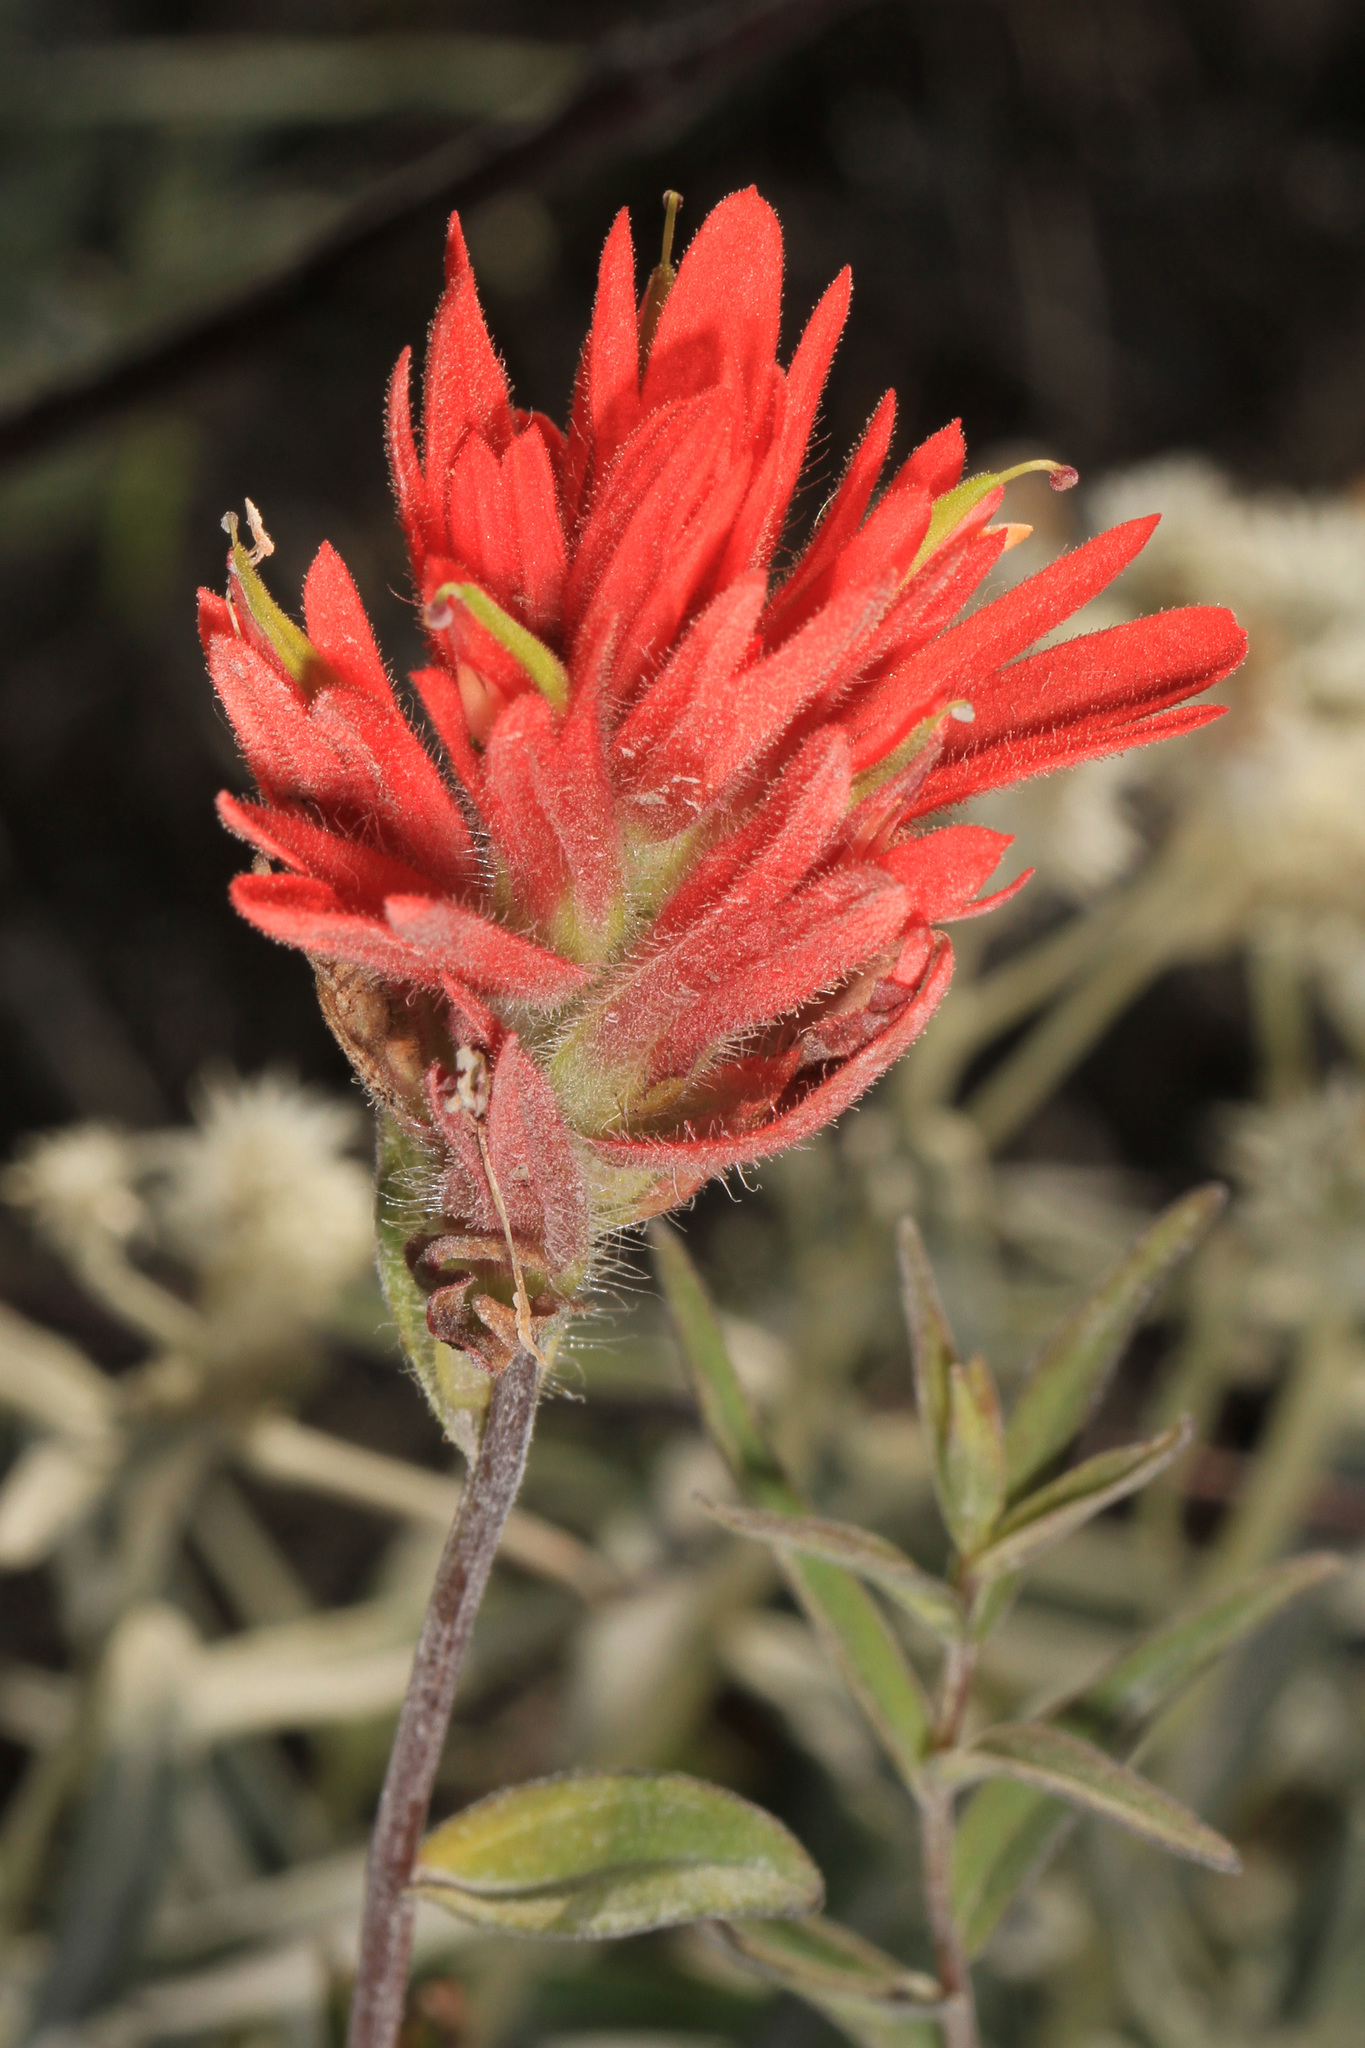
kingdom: Plantae
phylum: Tracheophyta
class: Magnoliopsida
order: Lamiales
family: Orobanchaceae
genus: Castilleja
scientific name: Castilleja miniata
